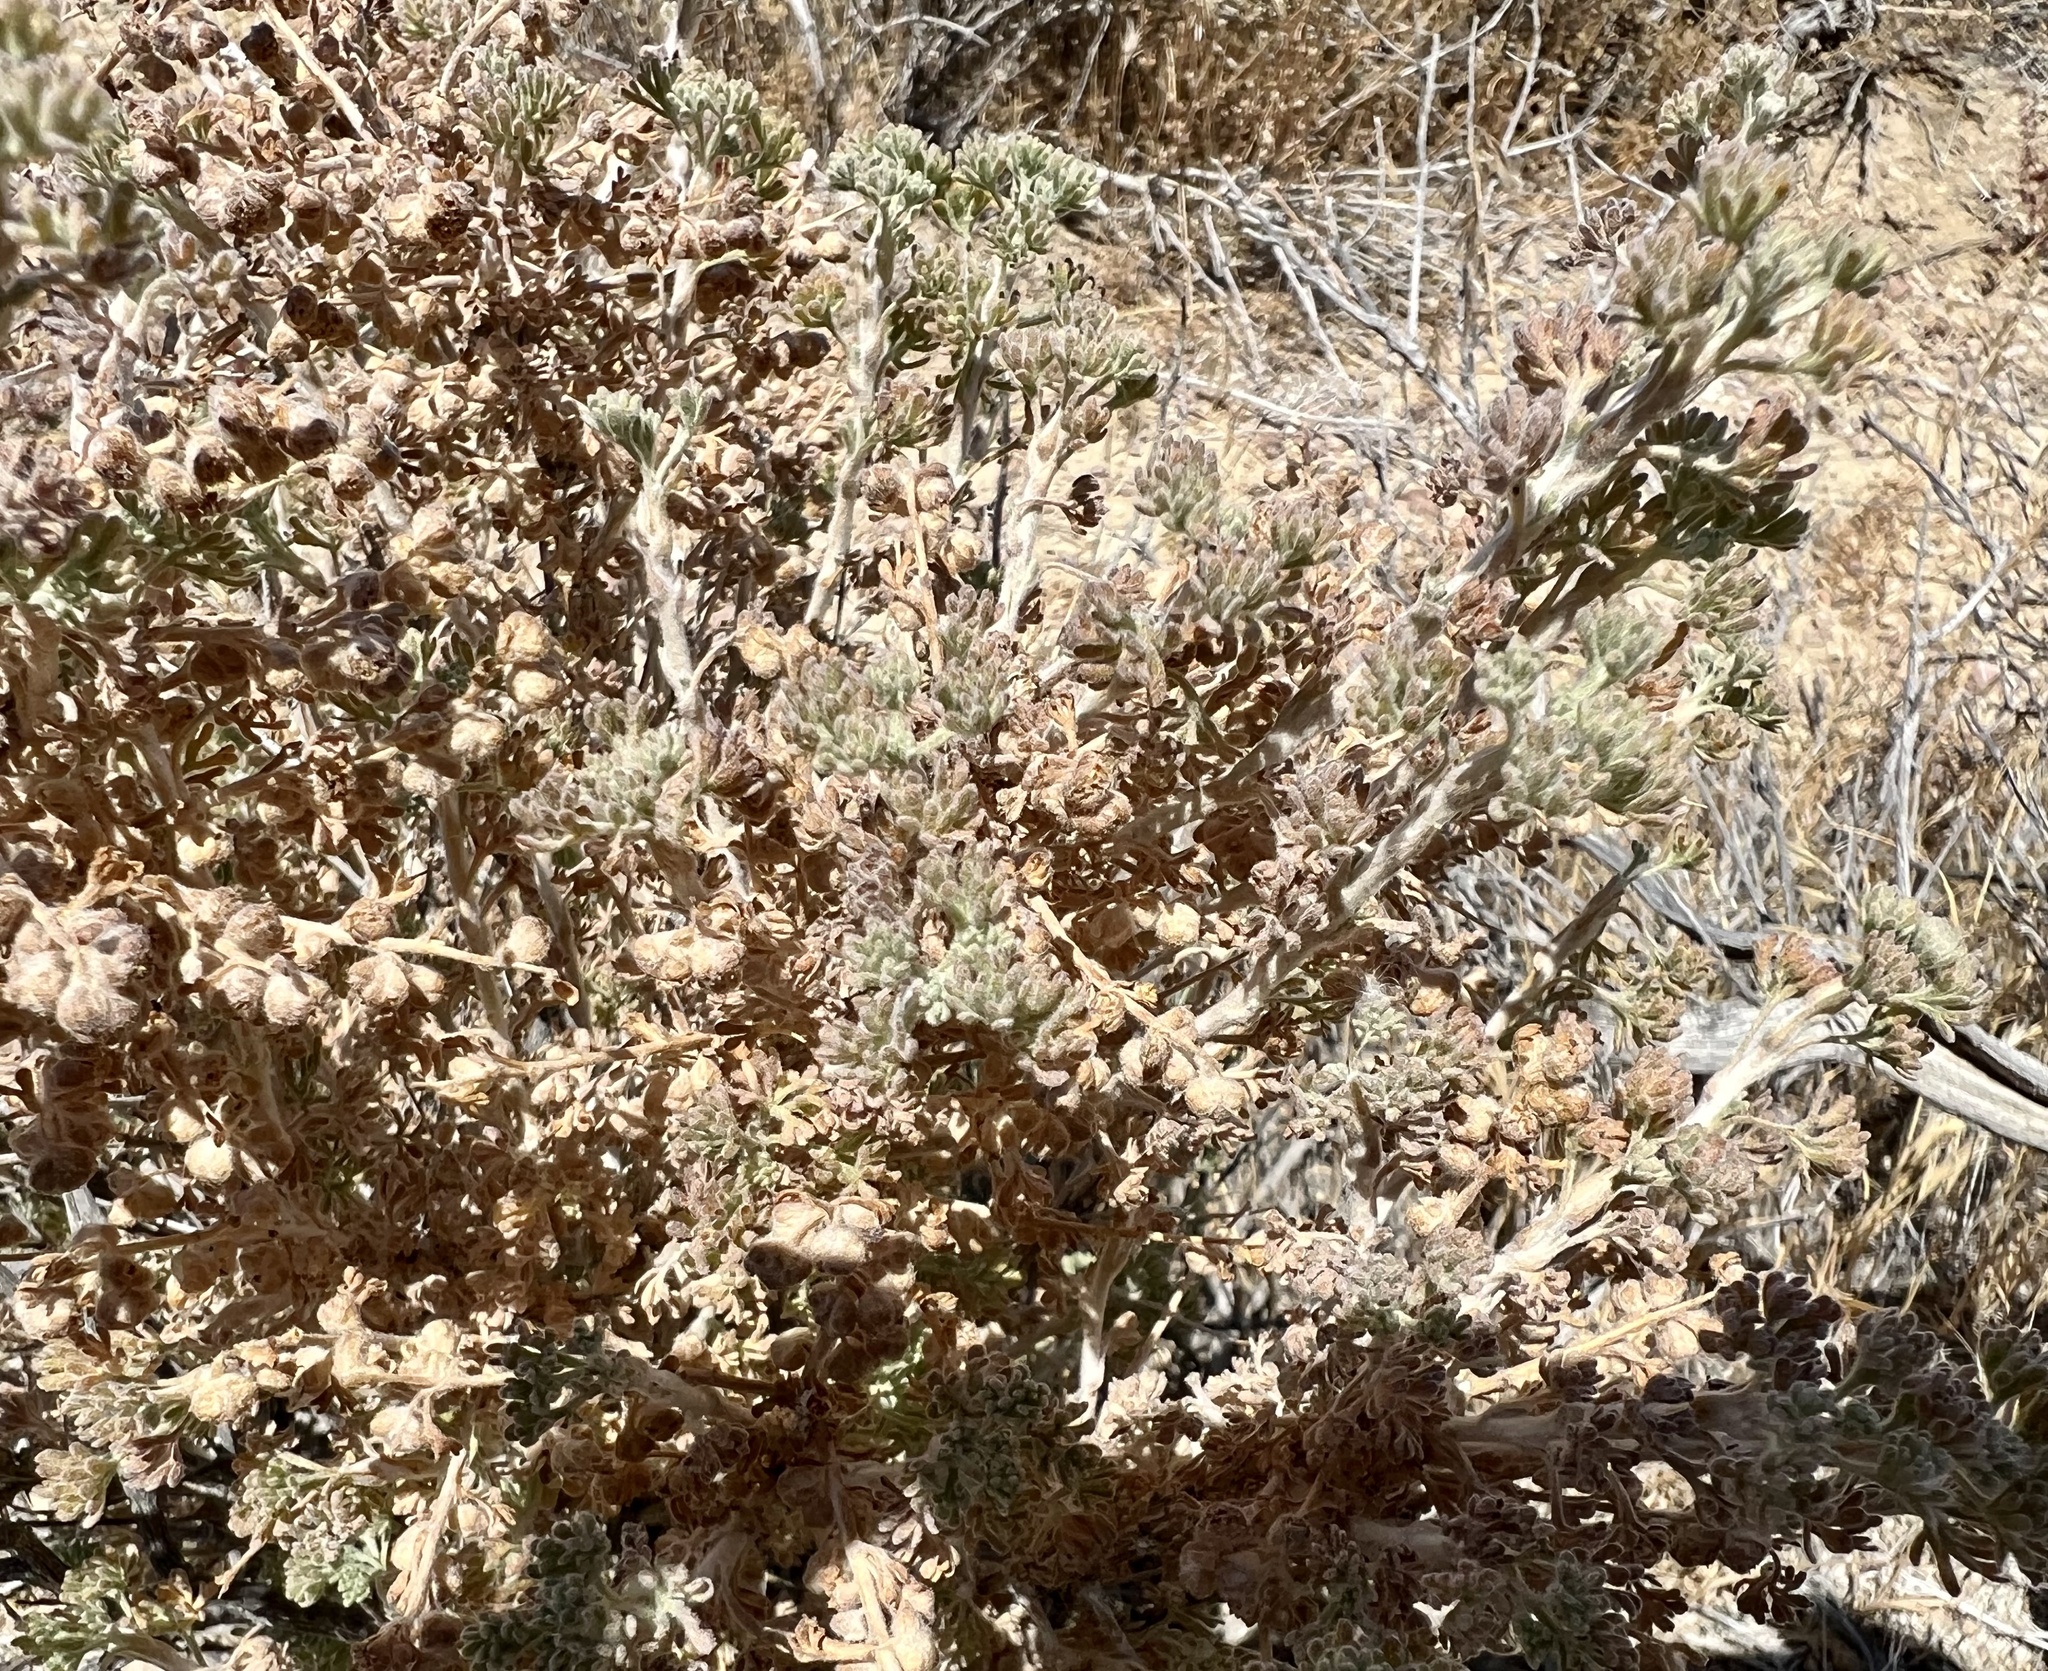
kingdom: Plantae
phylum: Tracheophyta
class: Magnoliopsida
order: Asterales
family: Asteraceae
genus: Artemisia
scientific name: Artemisia spinescens
